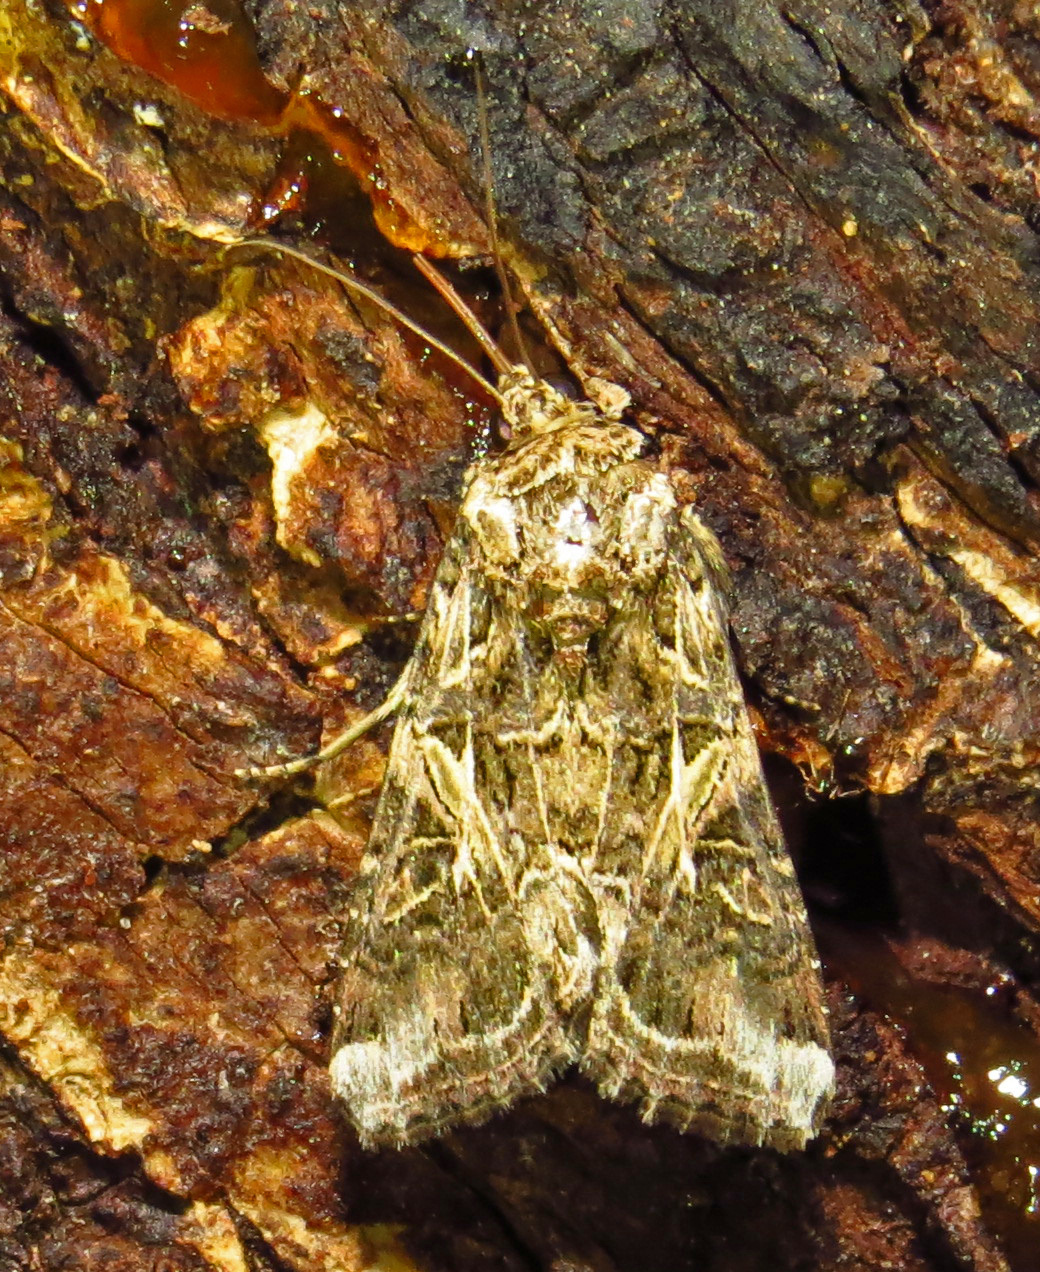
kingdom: Animalia
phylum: Arthropoda
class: Insecta
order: Lepidoptera
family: Noctuidae
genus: Spodoptera
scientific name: Spodoptera ornithogalli
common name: Yellow-striped armyworm
